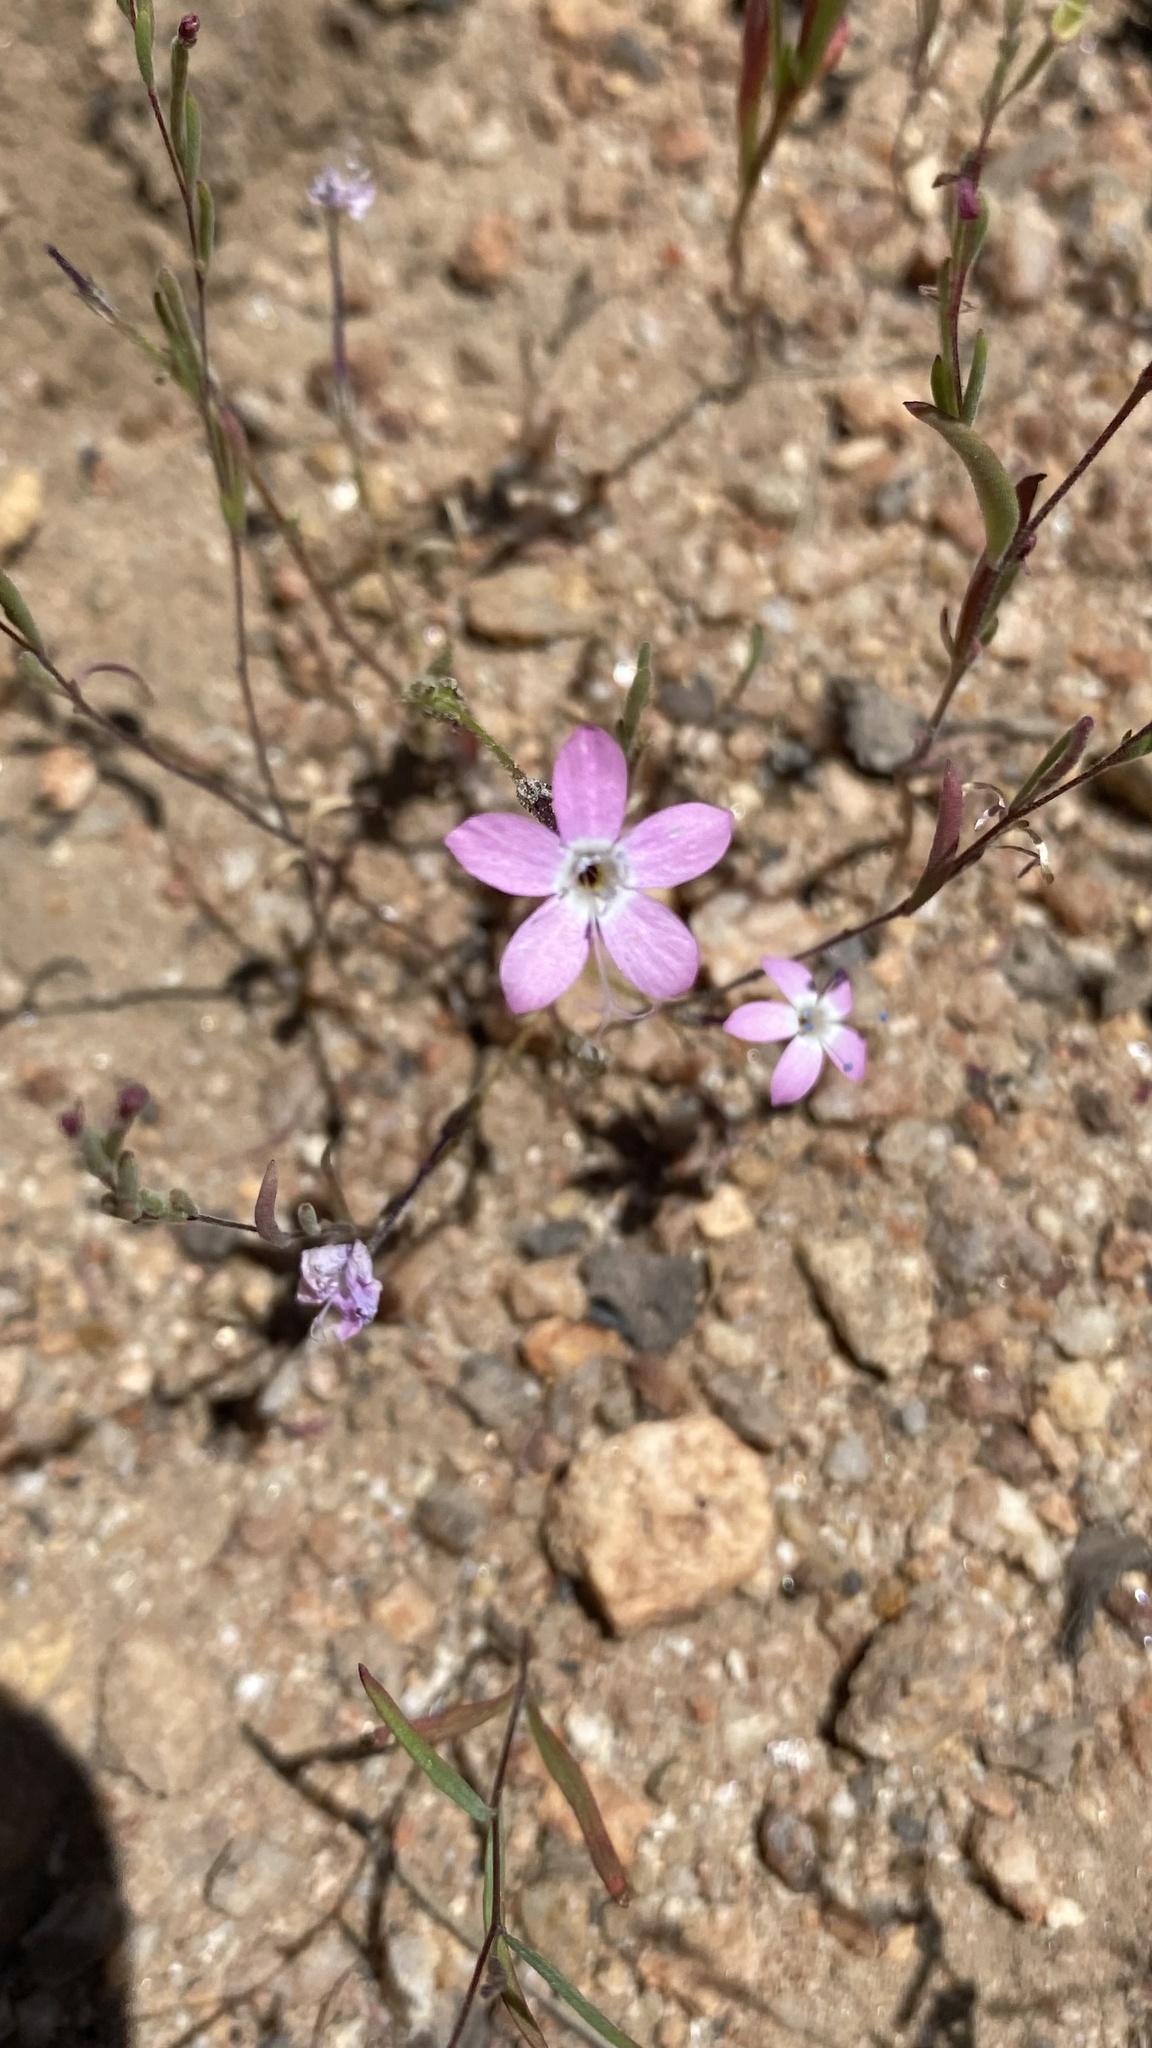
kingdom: Plantae
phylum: Tracheophyta
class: Magnoliopsida
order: Ericales
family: Polemoniaceae
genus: Gilia
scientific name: Gilia leptantha
